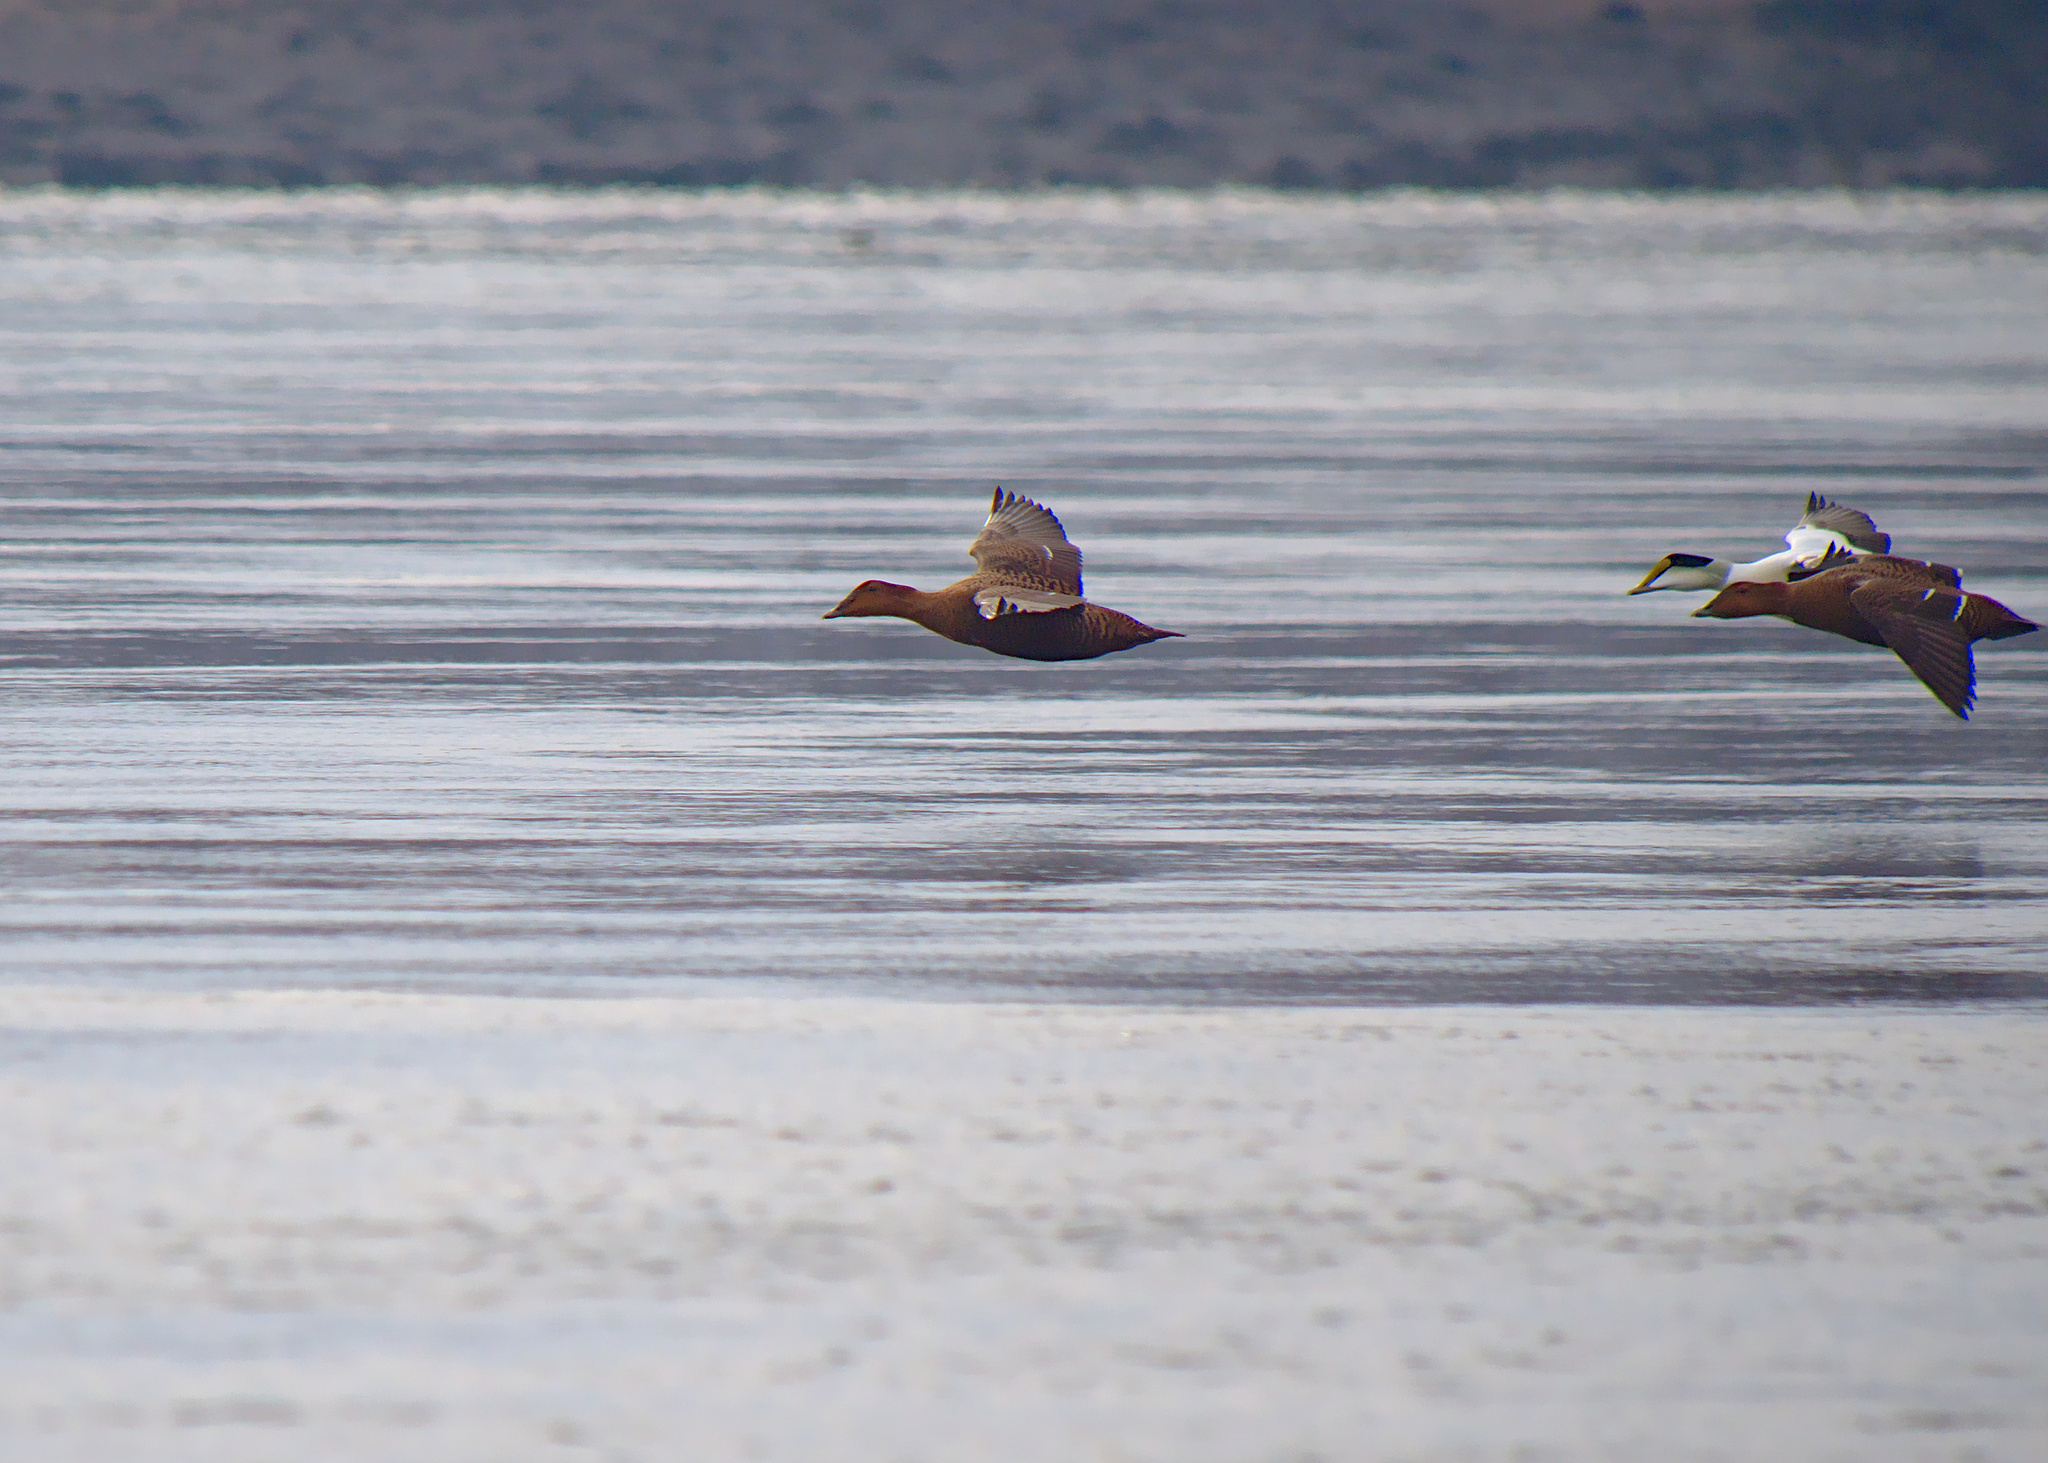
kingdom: Animalia
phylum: Chordata
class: Aves
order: Anseriformes
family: Anatidae
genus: Somateria
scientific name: Somateria mollissima
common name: Common eider
